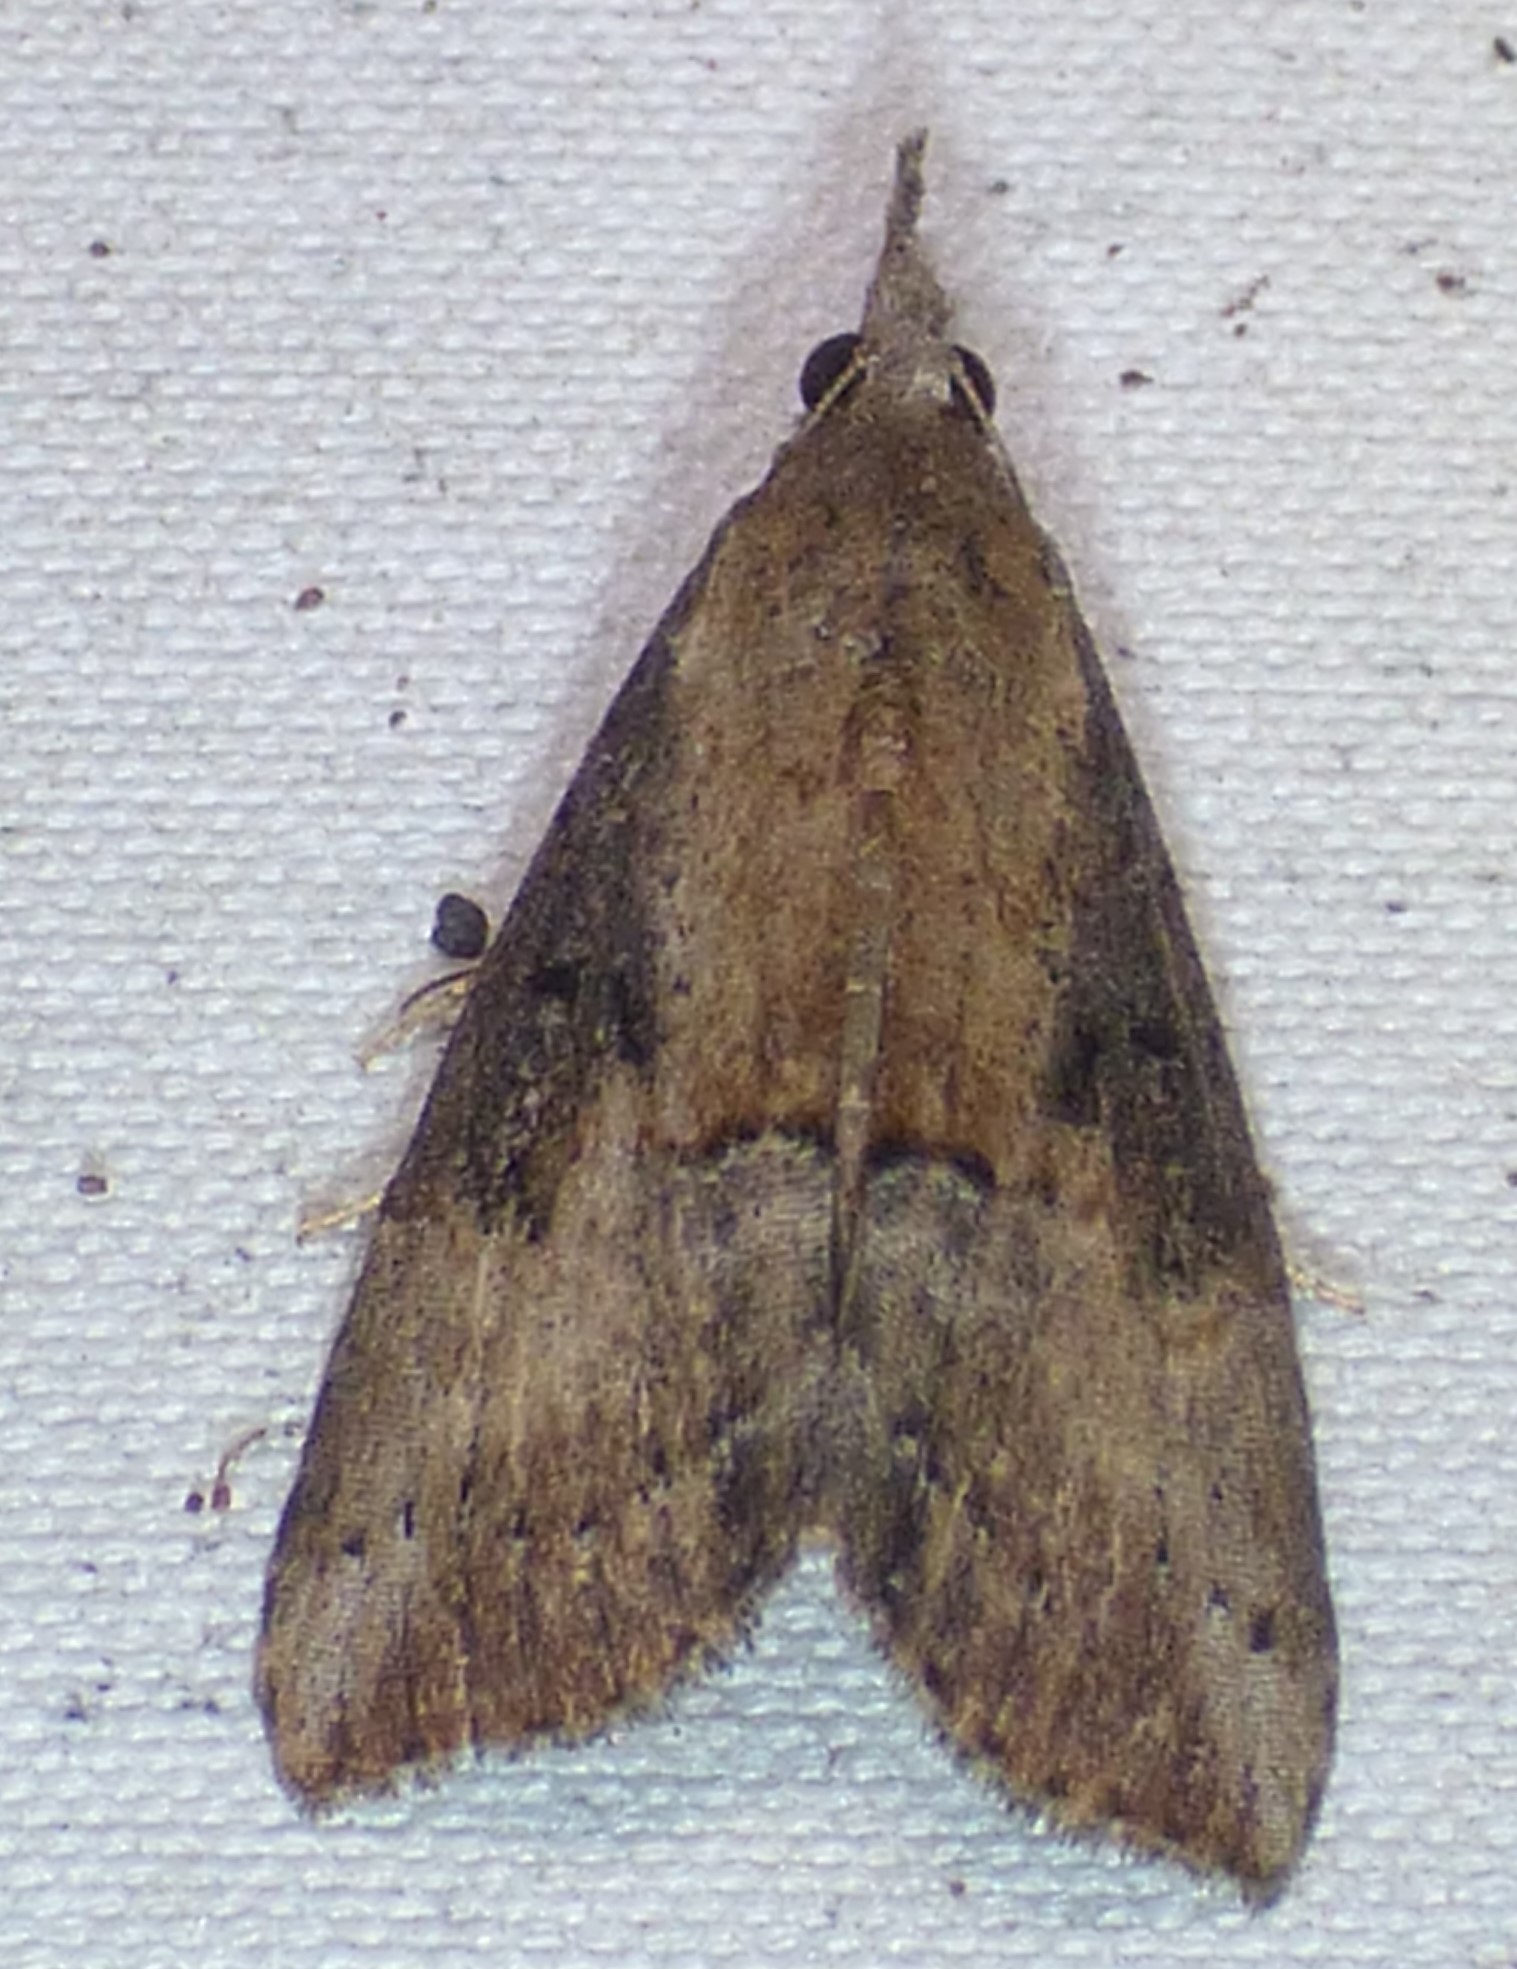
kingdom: Animalia
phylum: Arthropoda
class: Insecta
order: Lepidoptera
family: Erebidae
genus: Hypena
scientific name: Hypena scabra
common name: Green cloverworm
